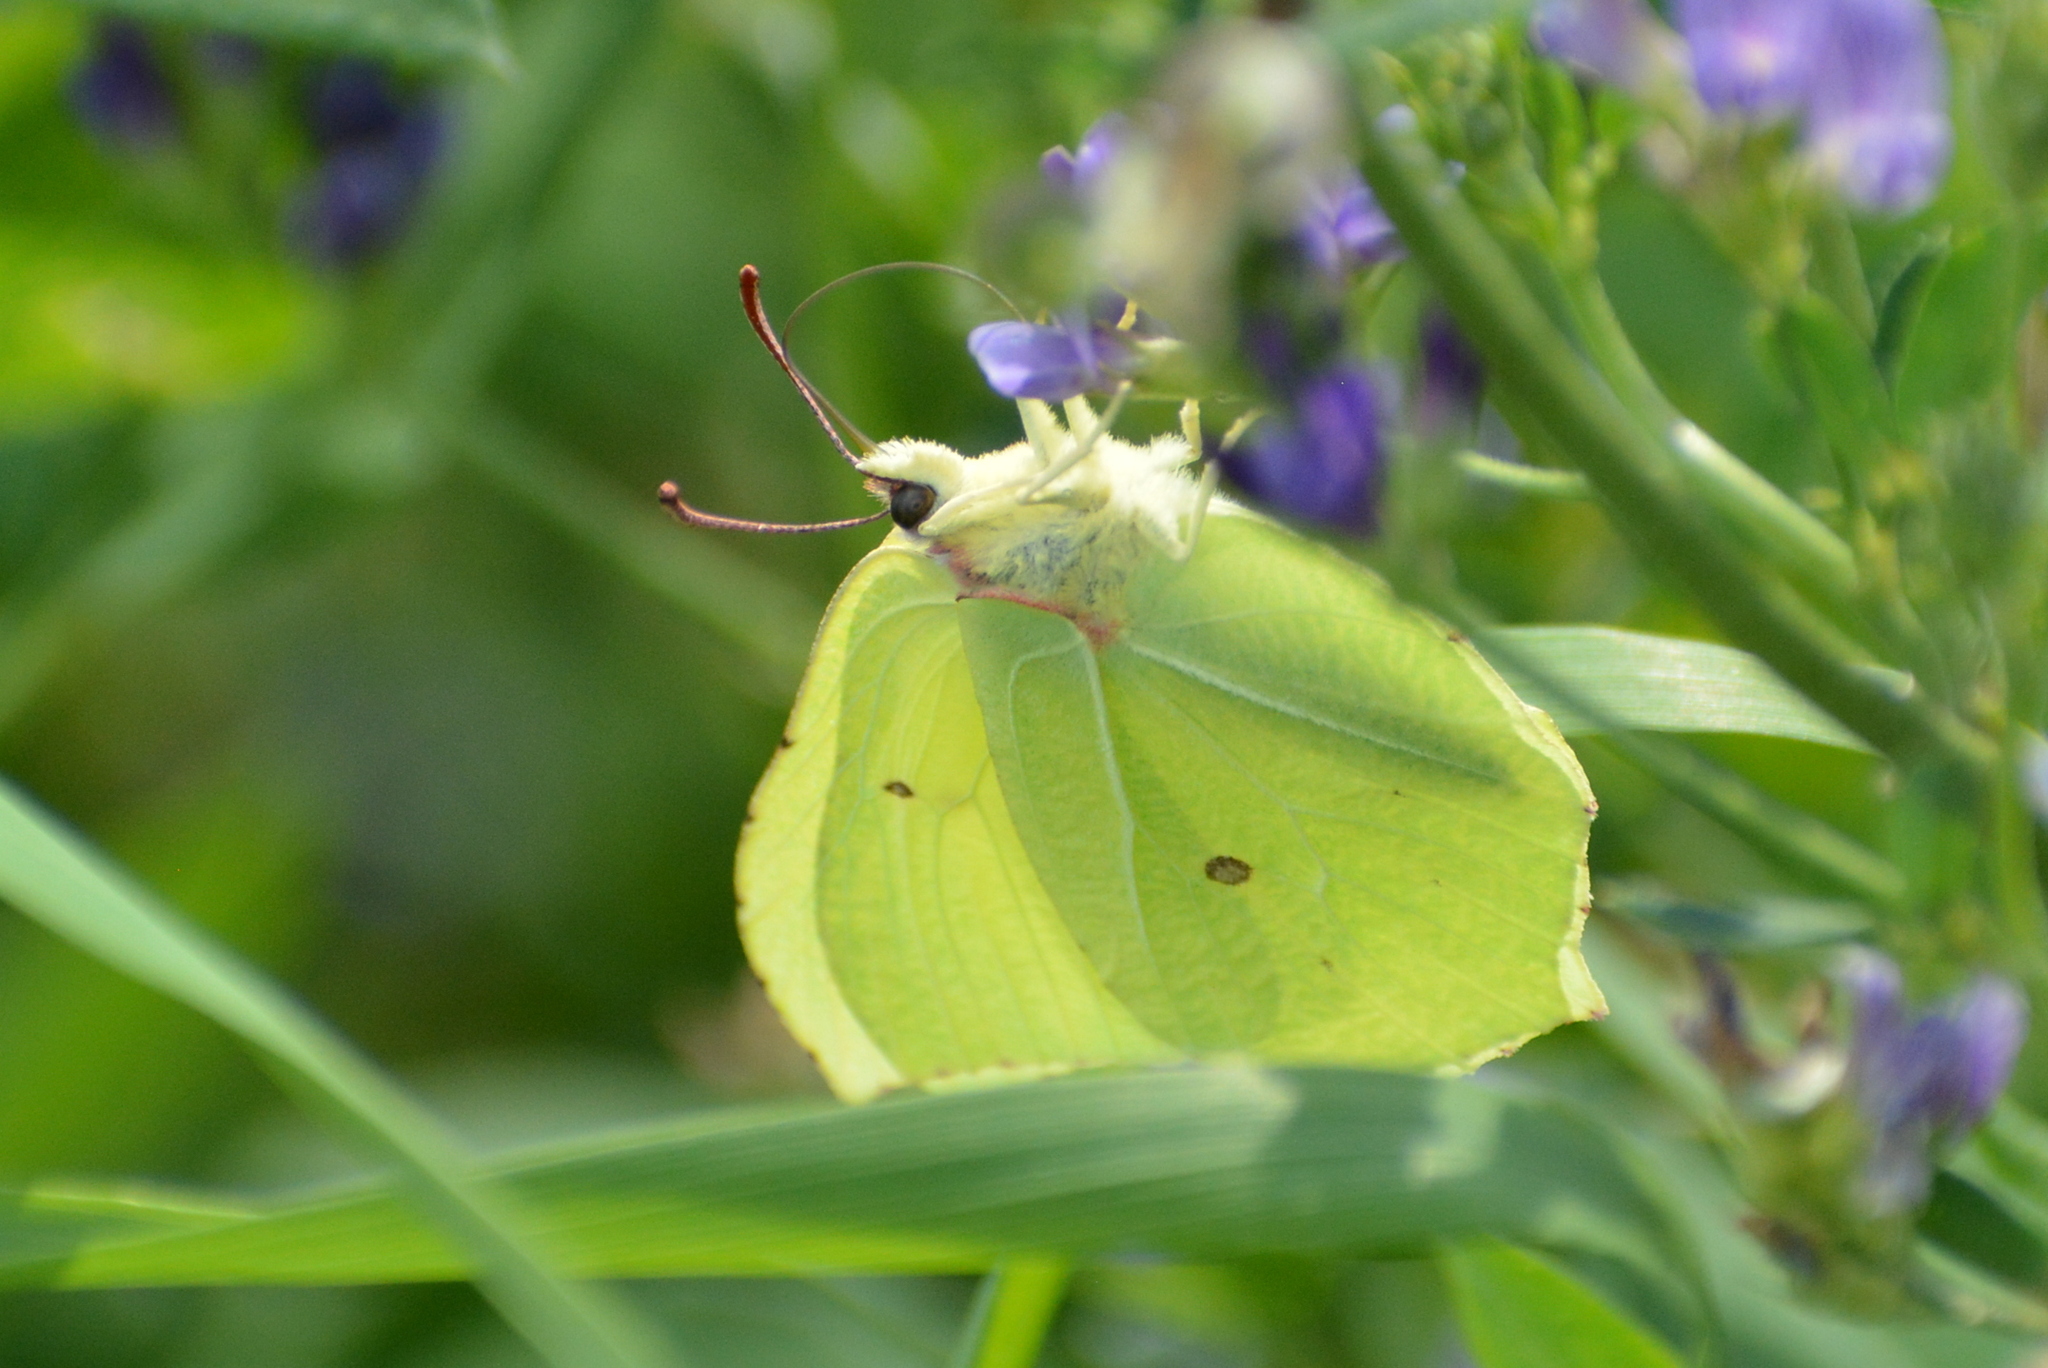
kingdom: Animalia
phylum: Arthropoda
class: Insecta
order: Lepidoptera
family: Pieridae
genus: Gonepteryx
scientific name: Gonepteryx rhamni
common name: Brimstone
